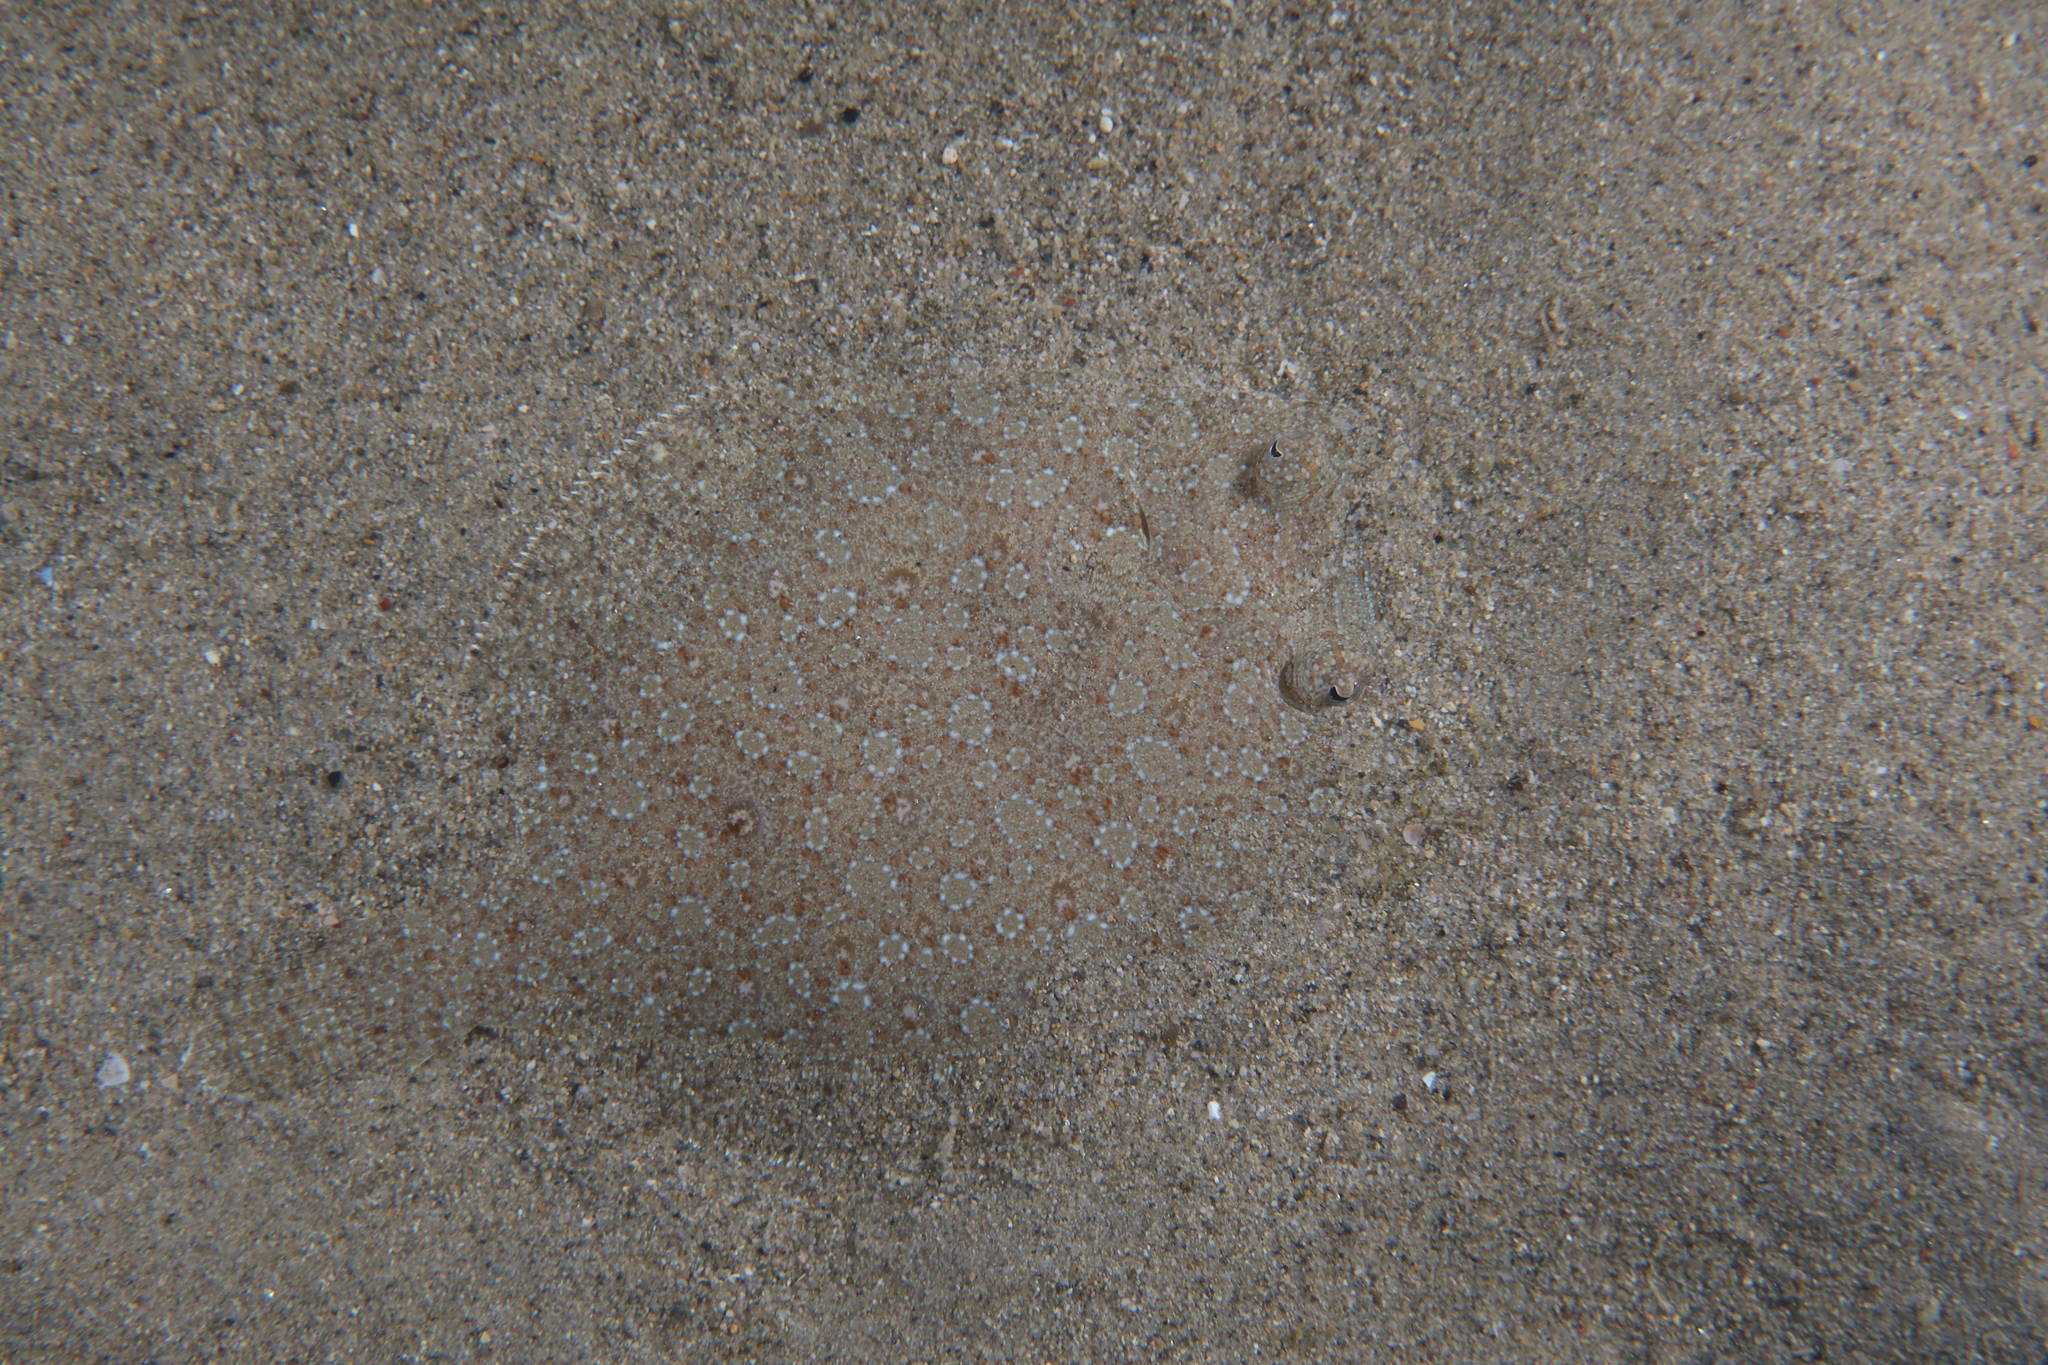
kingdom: Animalia
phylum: Chordata
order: Pleuronectiformes
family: Bothidae
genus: Bothus
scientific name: Bothus podas
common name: Wide-eyed flounder
